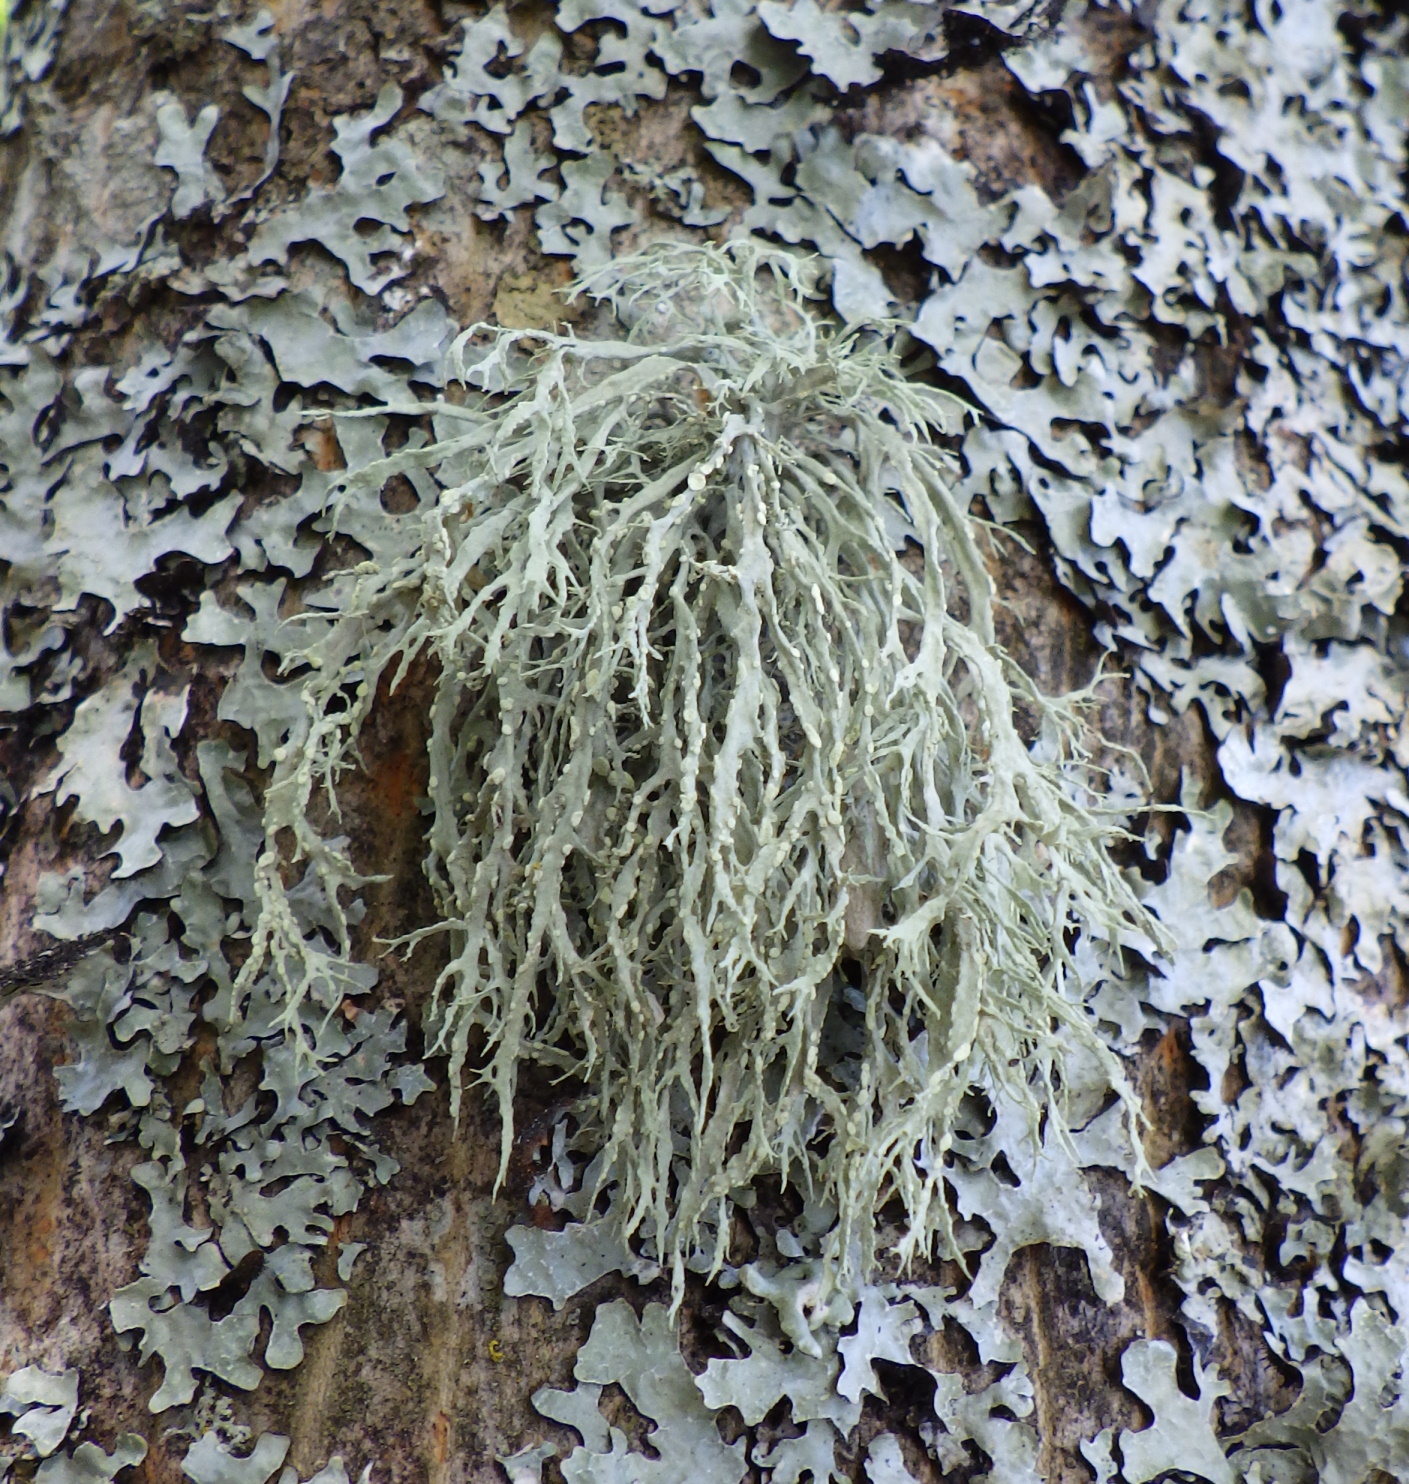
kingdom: Fungi
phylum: Ascomycota
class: Lecanoromycetes
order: Lecanorales
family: Ramalinaceae
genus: Ramalina
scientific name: Ramalina farinacea
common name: Farinose cartilage lichen
